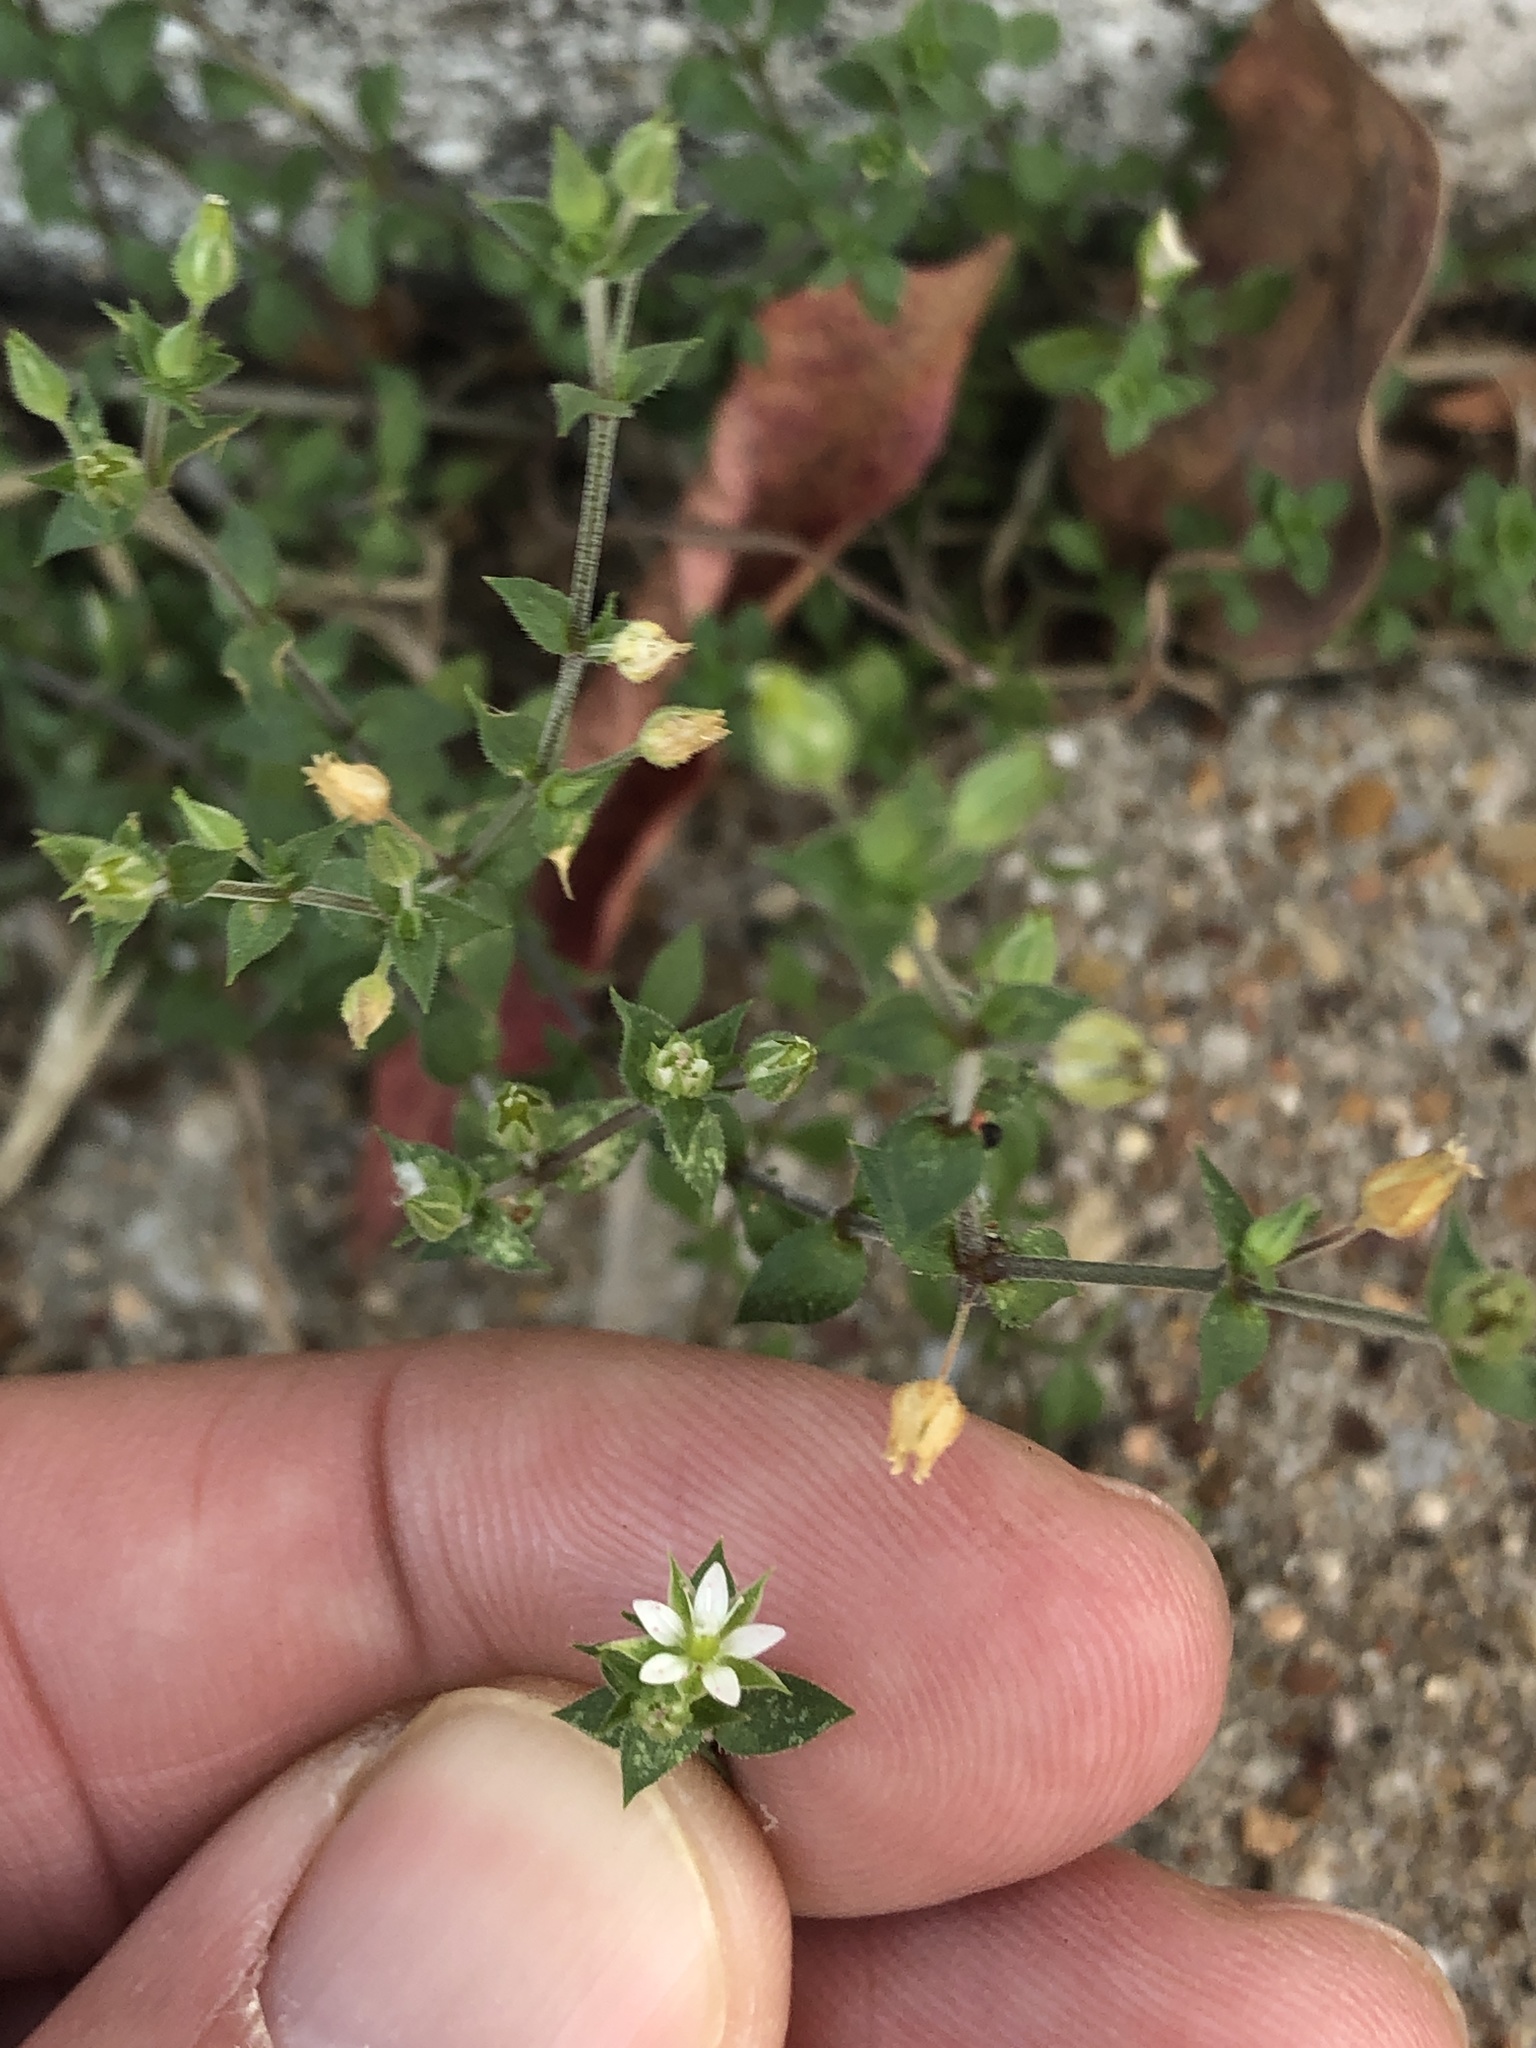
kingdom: Plantae
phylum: Tracheophyta
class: Magnoliopsida
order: Caryophyllales
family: Caryophyllaceae
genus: Arenaria
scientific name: Arenaria serpyllifolia
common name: Thyme-leaved sandwort
